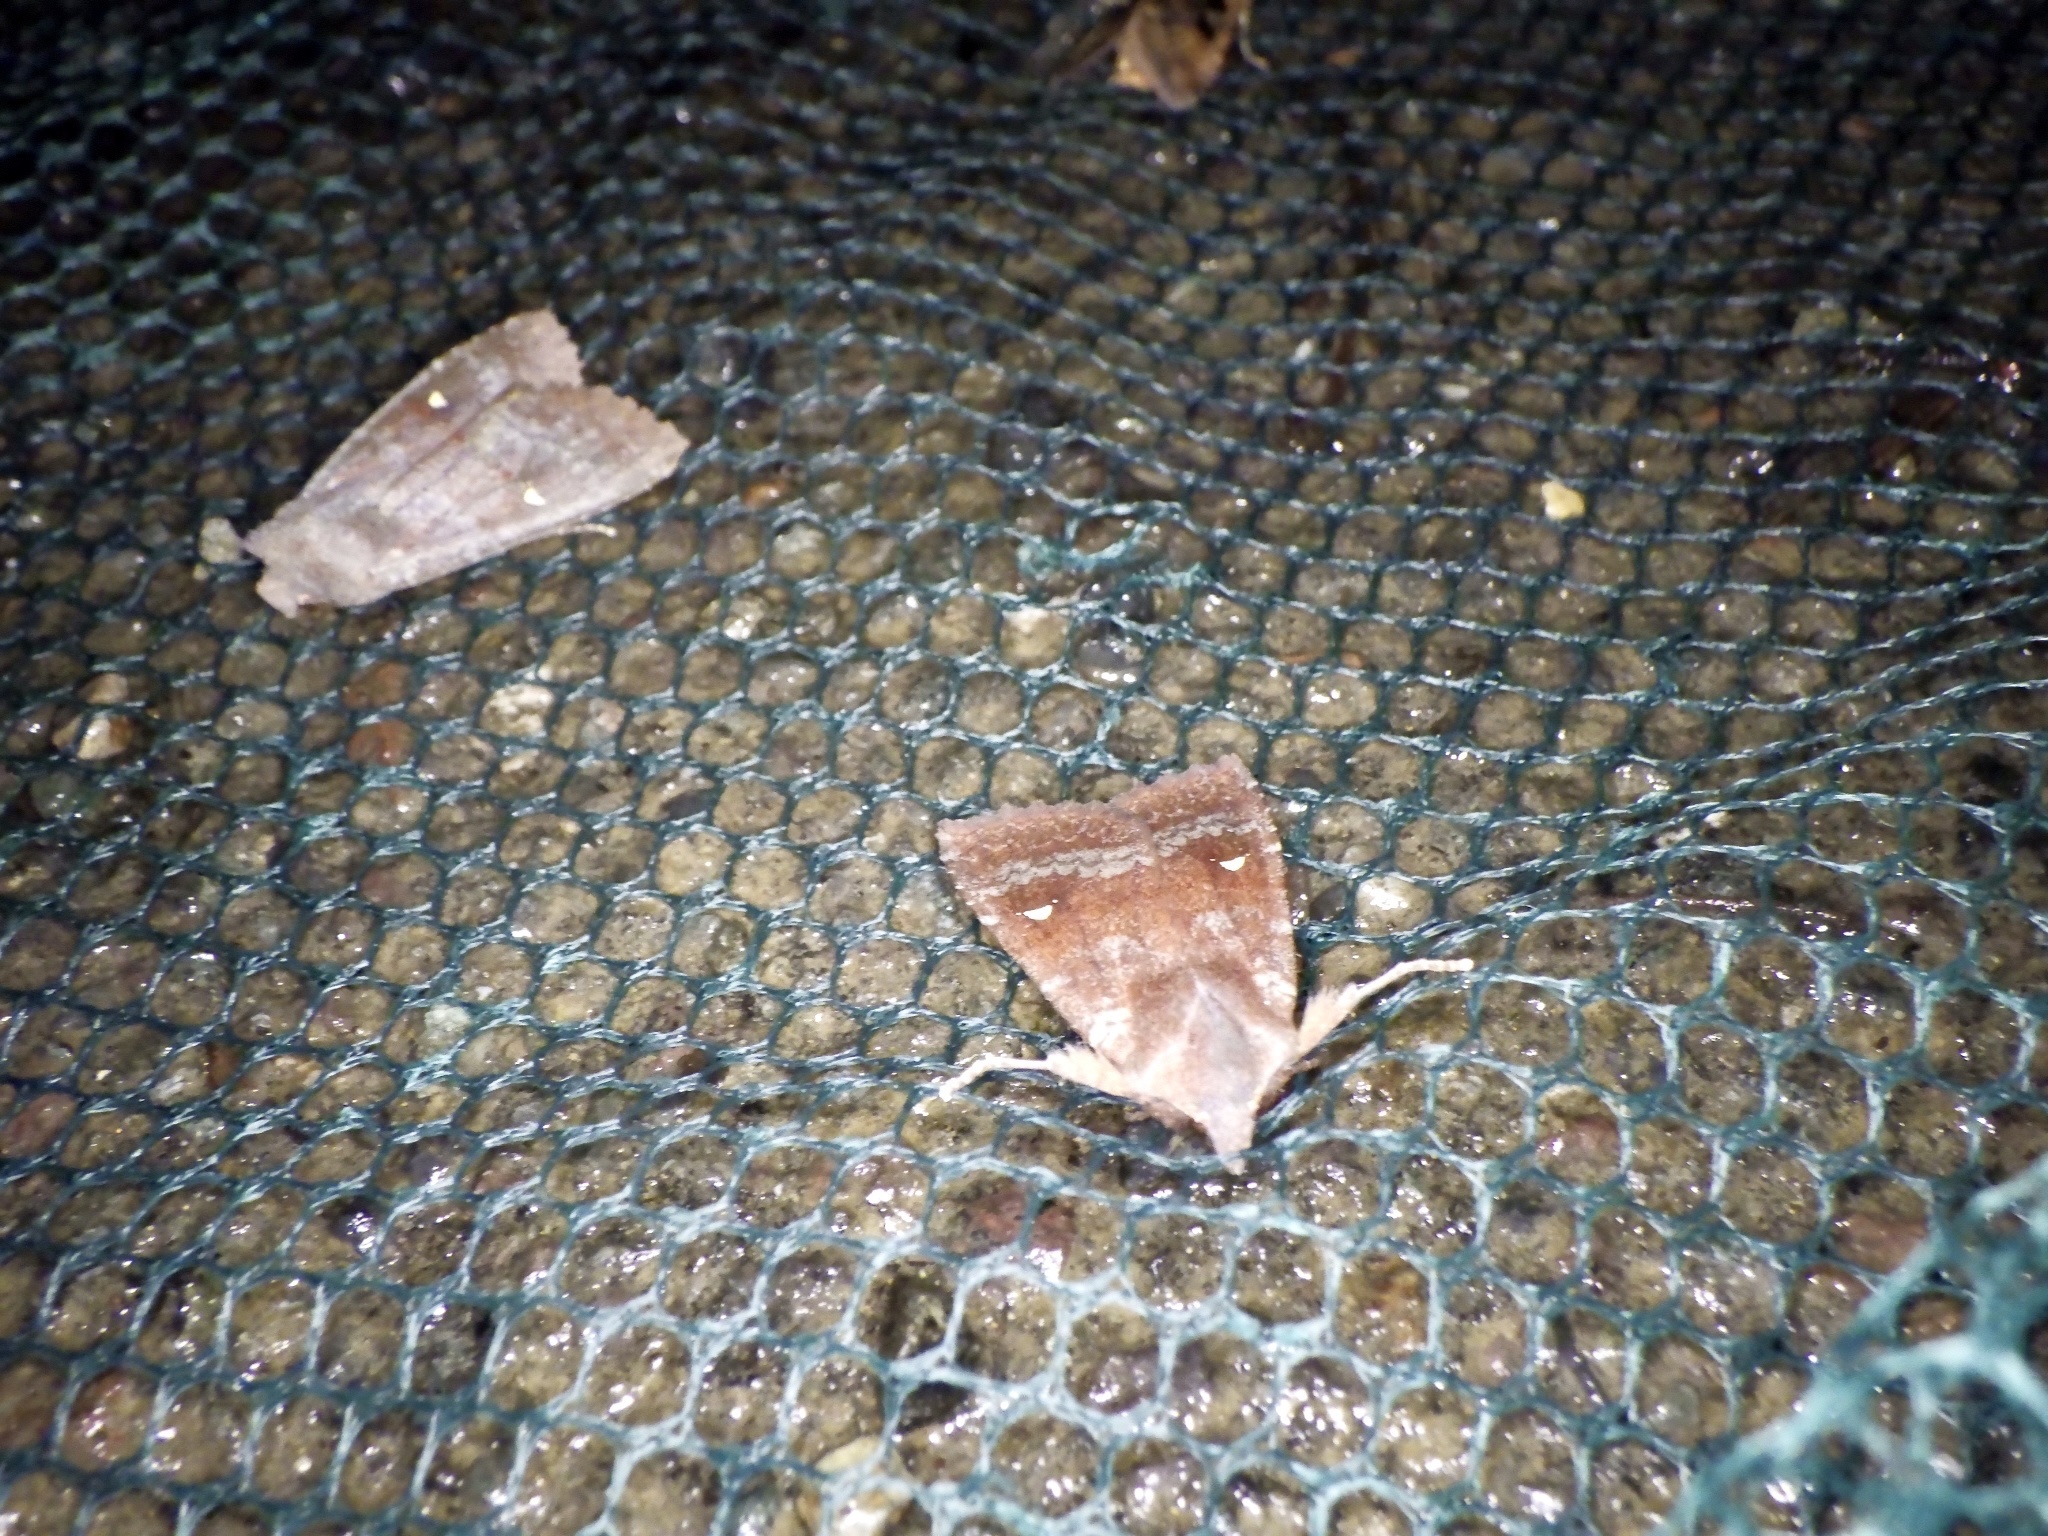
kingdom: Animalia
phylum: Arthropoda
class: Insecta
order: Lepidoptera
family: Noctuidae
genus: Eupsilia
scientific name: Eupsilia unipuncta
